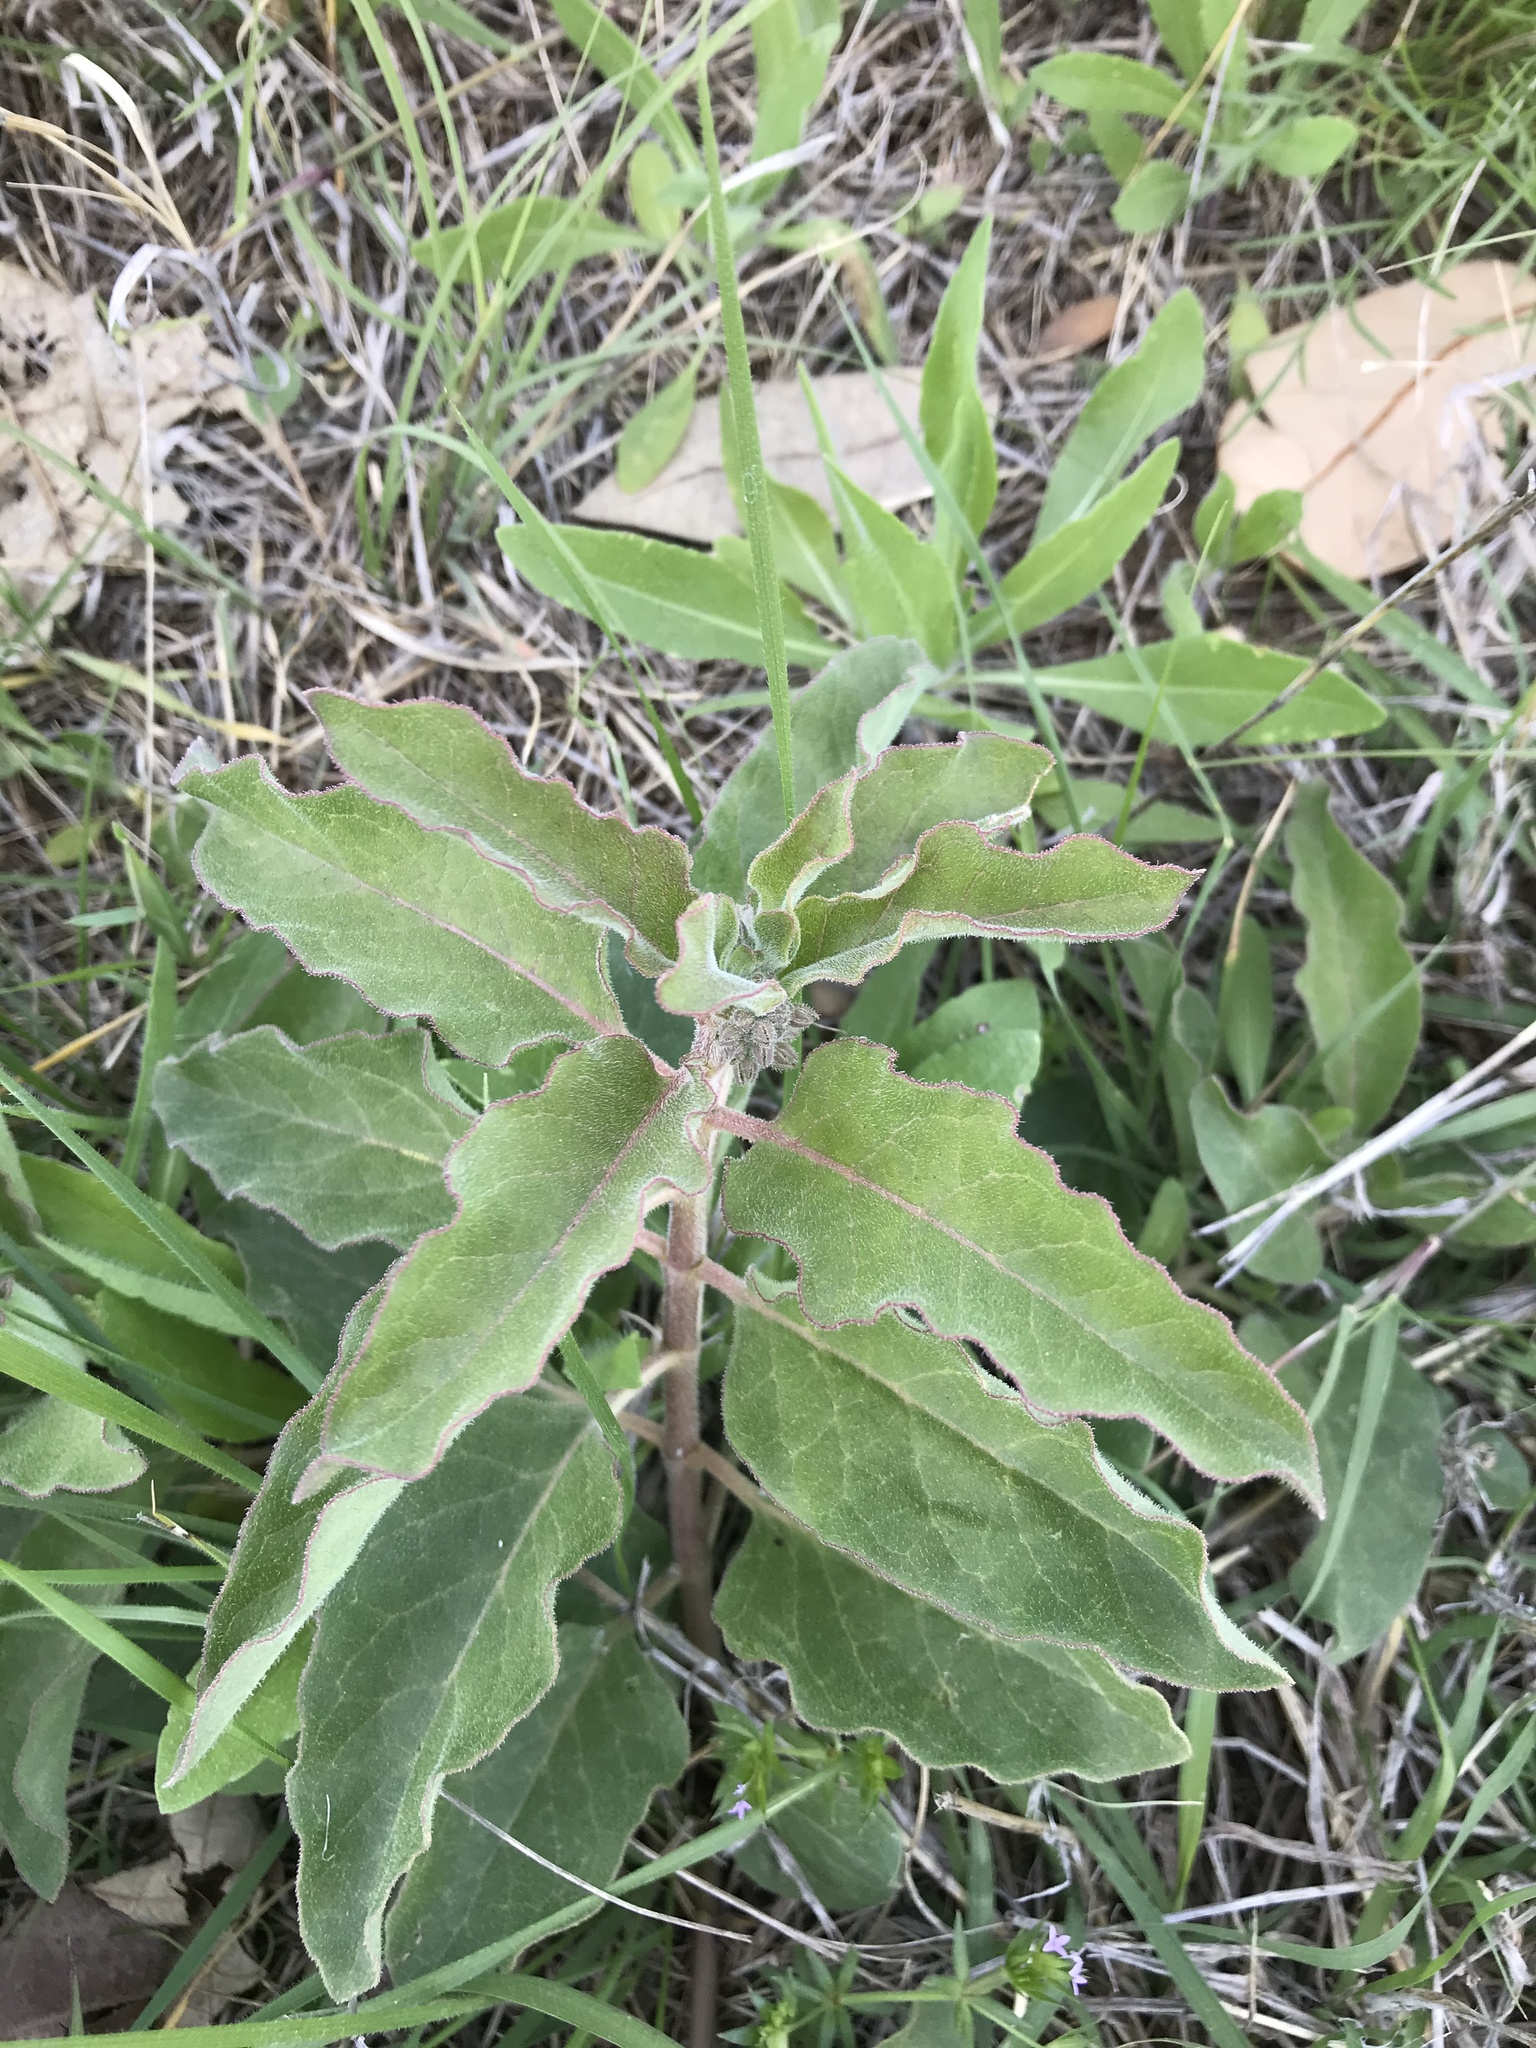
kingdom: Plantae
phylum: Tracheophyta
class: Magnoliopsida
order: Gentianales
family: Apocynaceae
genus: Asclepias
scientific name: Asclepias oenotheroides
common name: Zizotes milkweed
